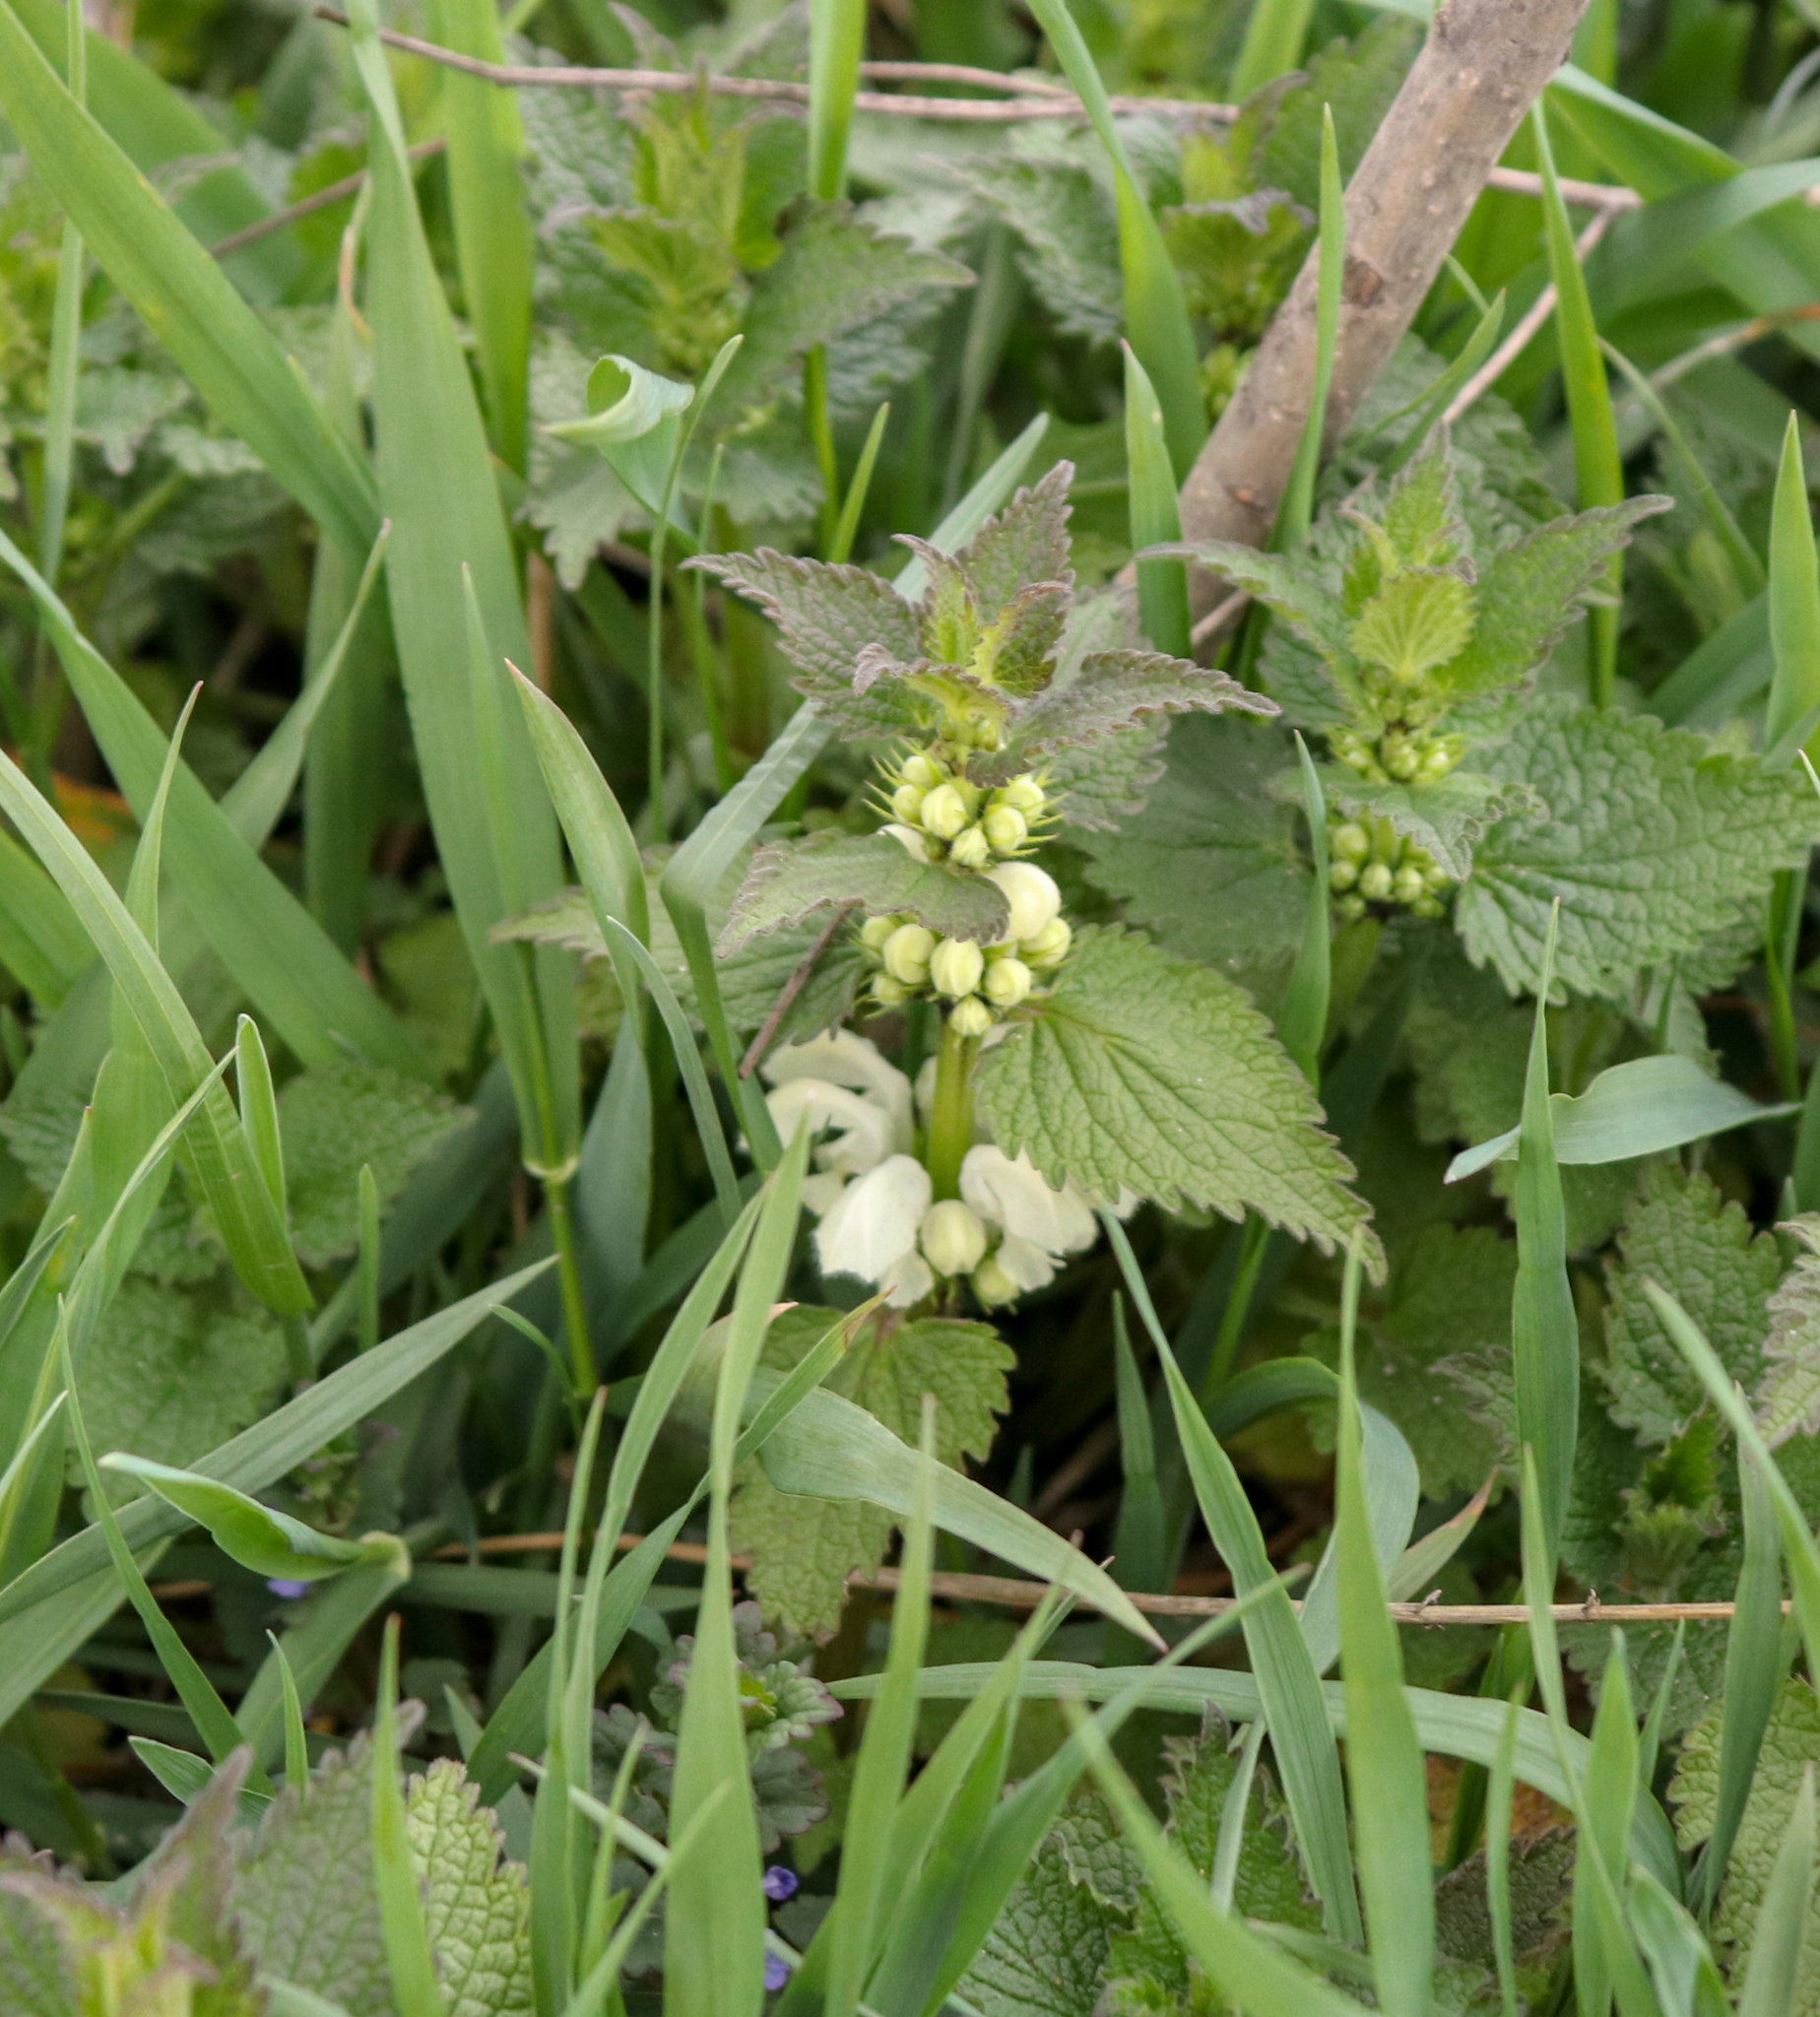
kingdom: Plantae
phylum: Tracheophyta
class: Magnoliopsida
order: Lamiales
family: Lamiaceae
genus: Lamium
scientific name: Lamium album
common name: White dead-nettle
